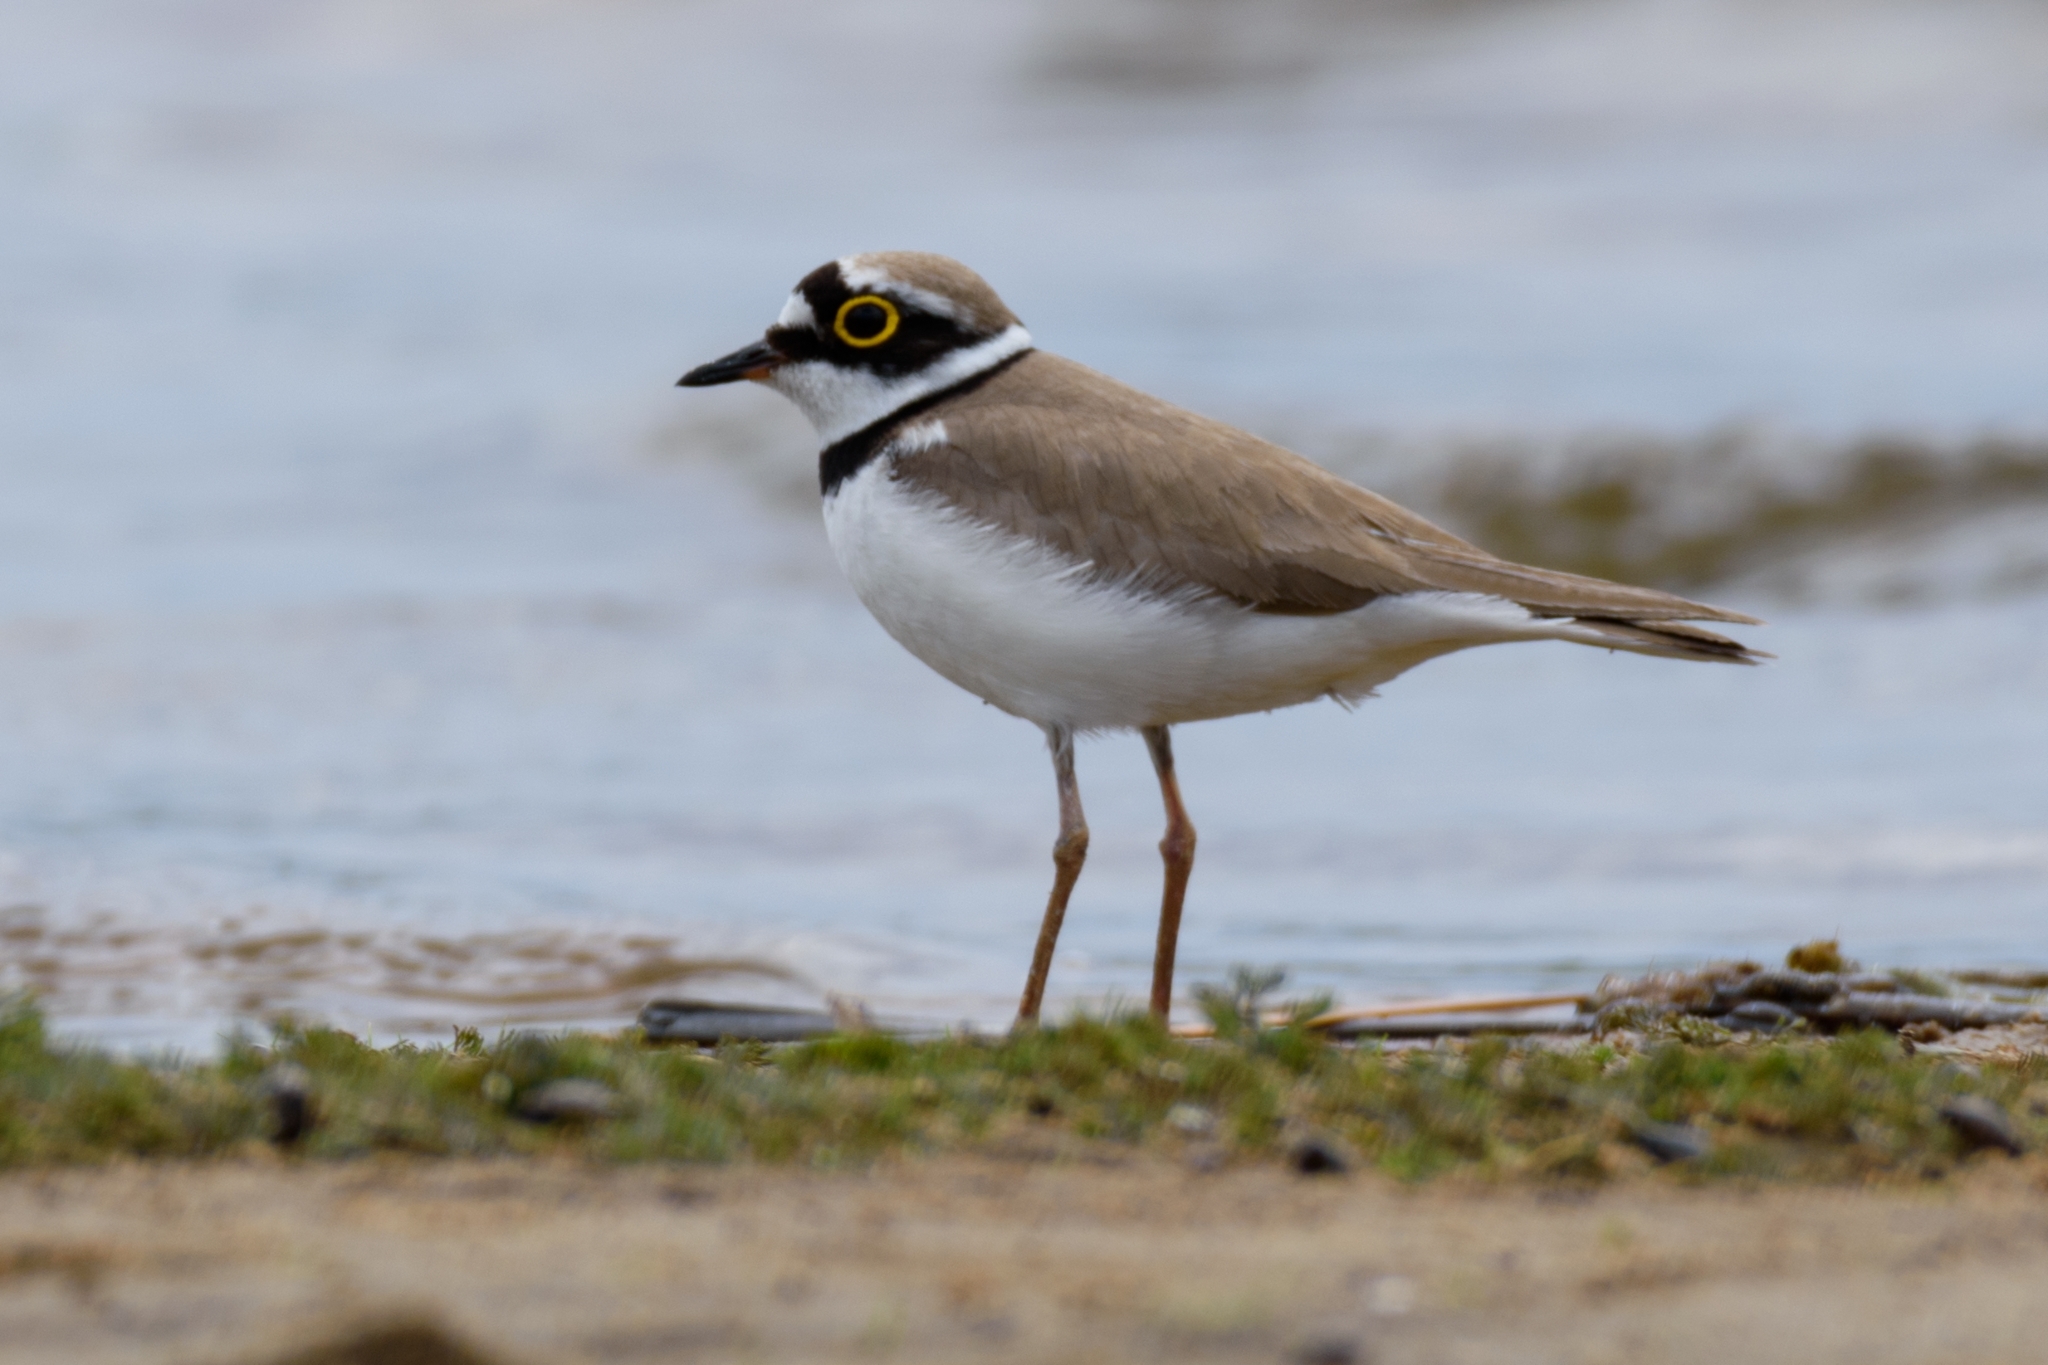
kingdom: Animalia
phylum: Chordata
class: Aves
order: Charadriiformes
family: Charadriidae
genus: Charadrius
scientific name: Charadrius dubius
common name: Little ringed plover
